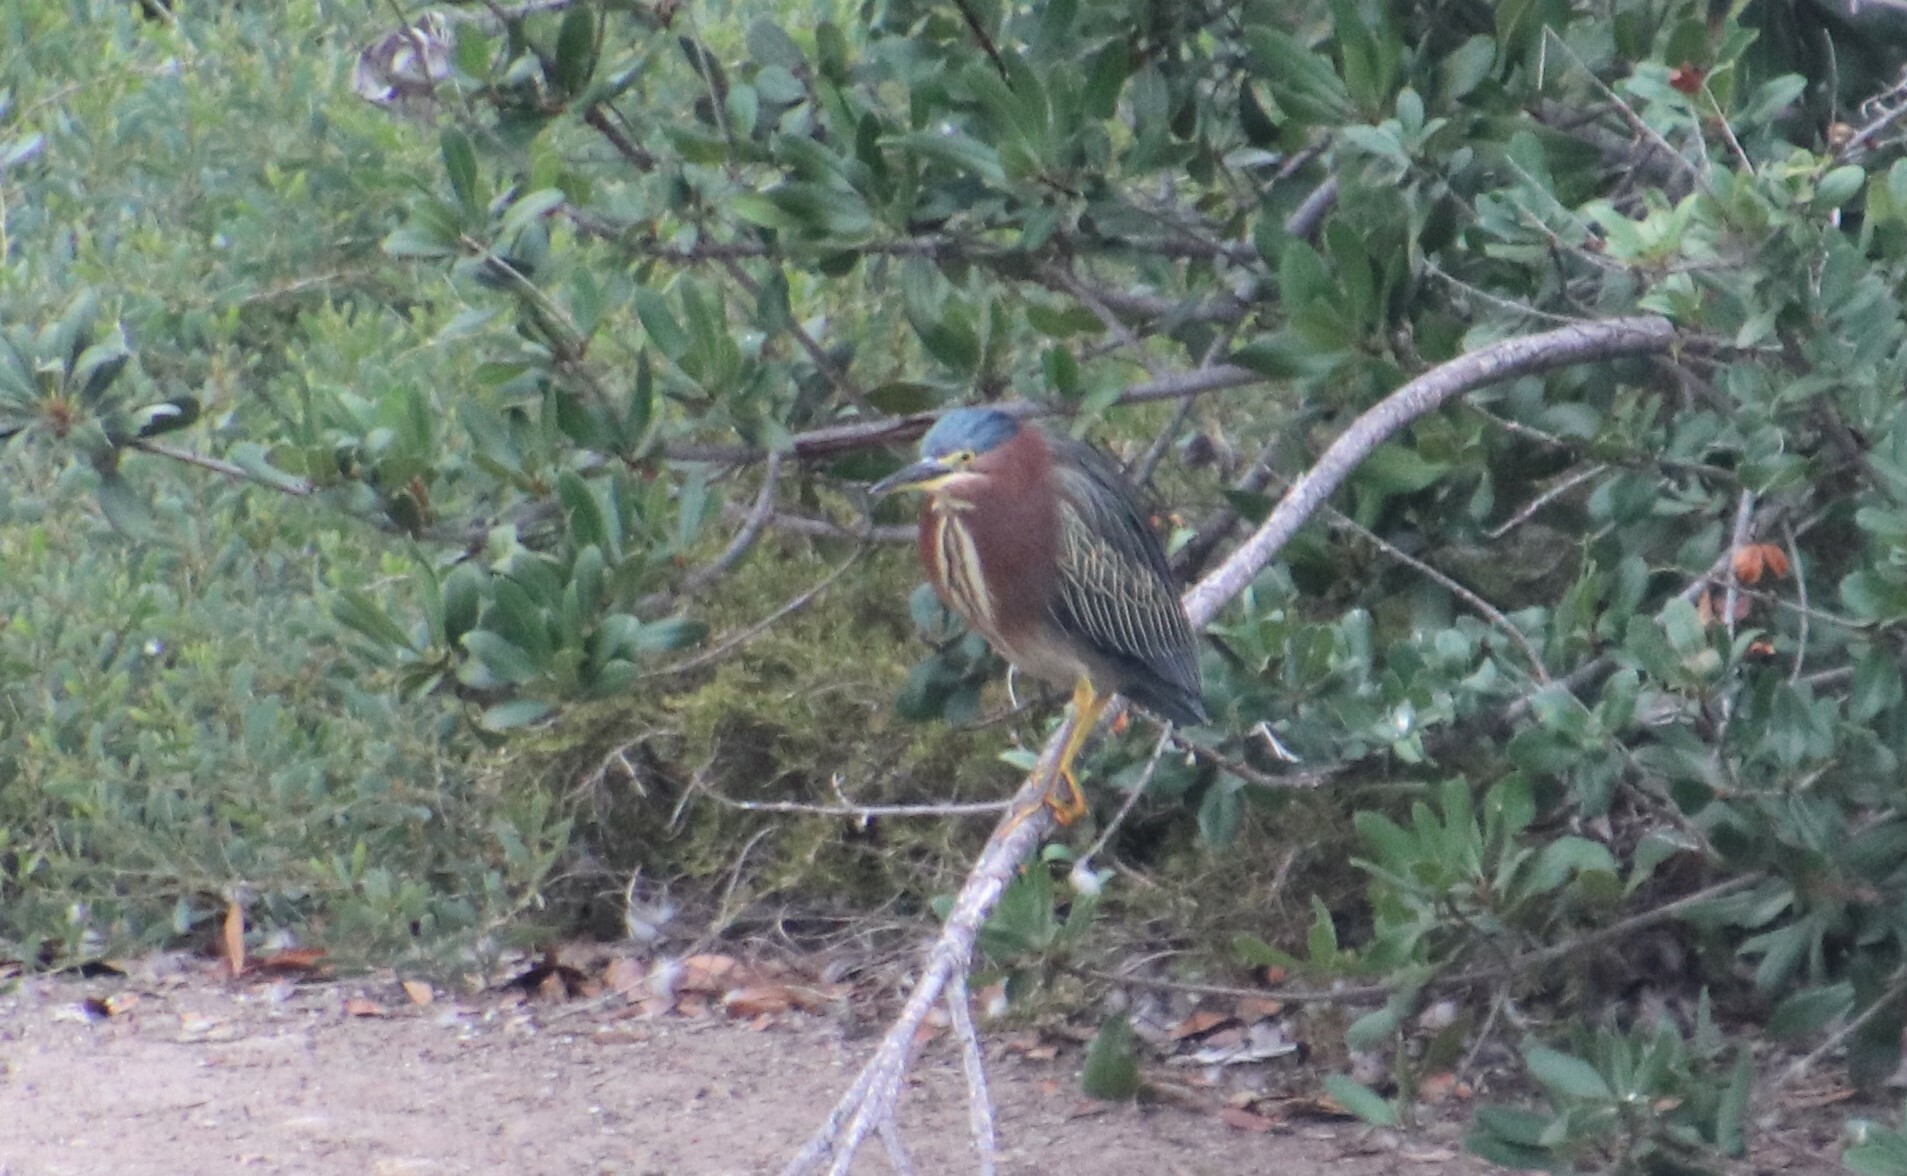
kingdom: Animalia
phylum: Chordata
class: Aves
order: Pelecaniformes
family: Ardeidae
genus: Butorides
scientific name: Butorides virescens
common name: Green heron
